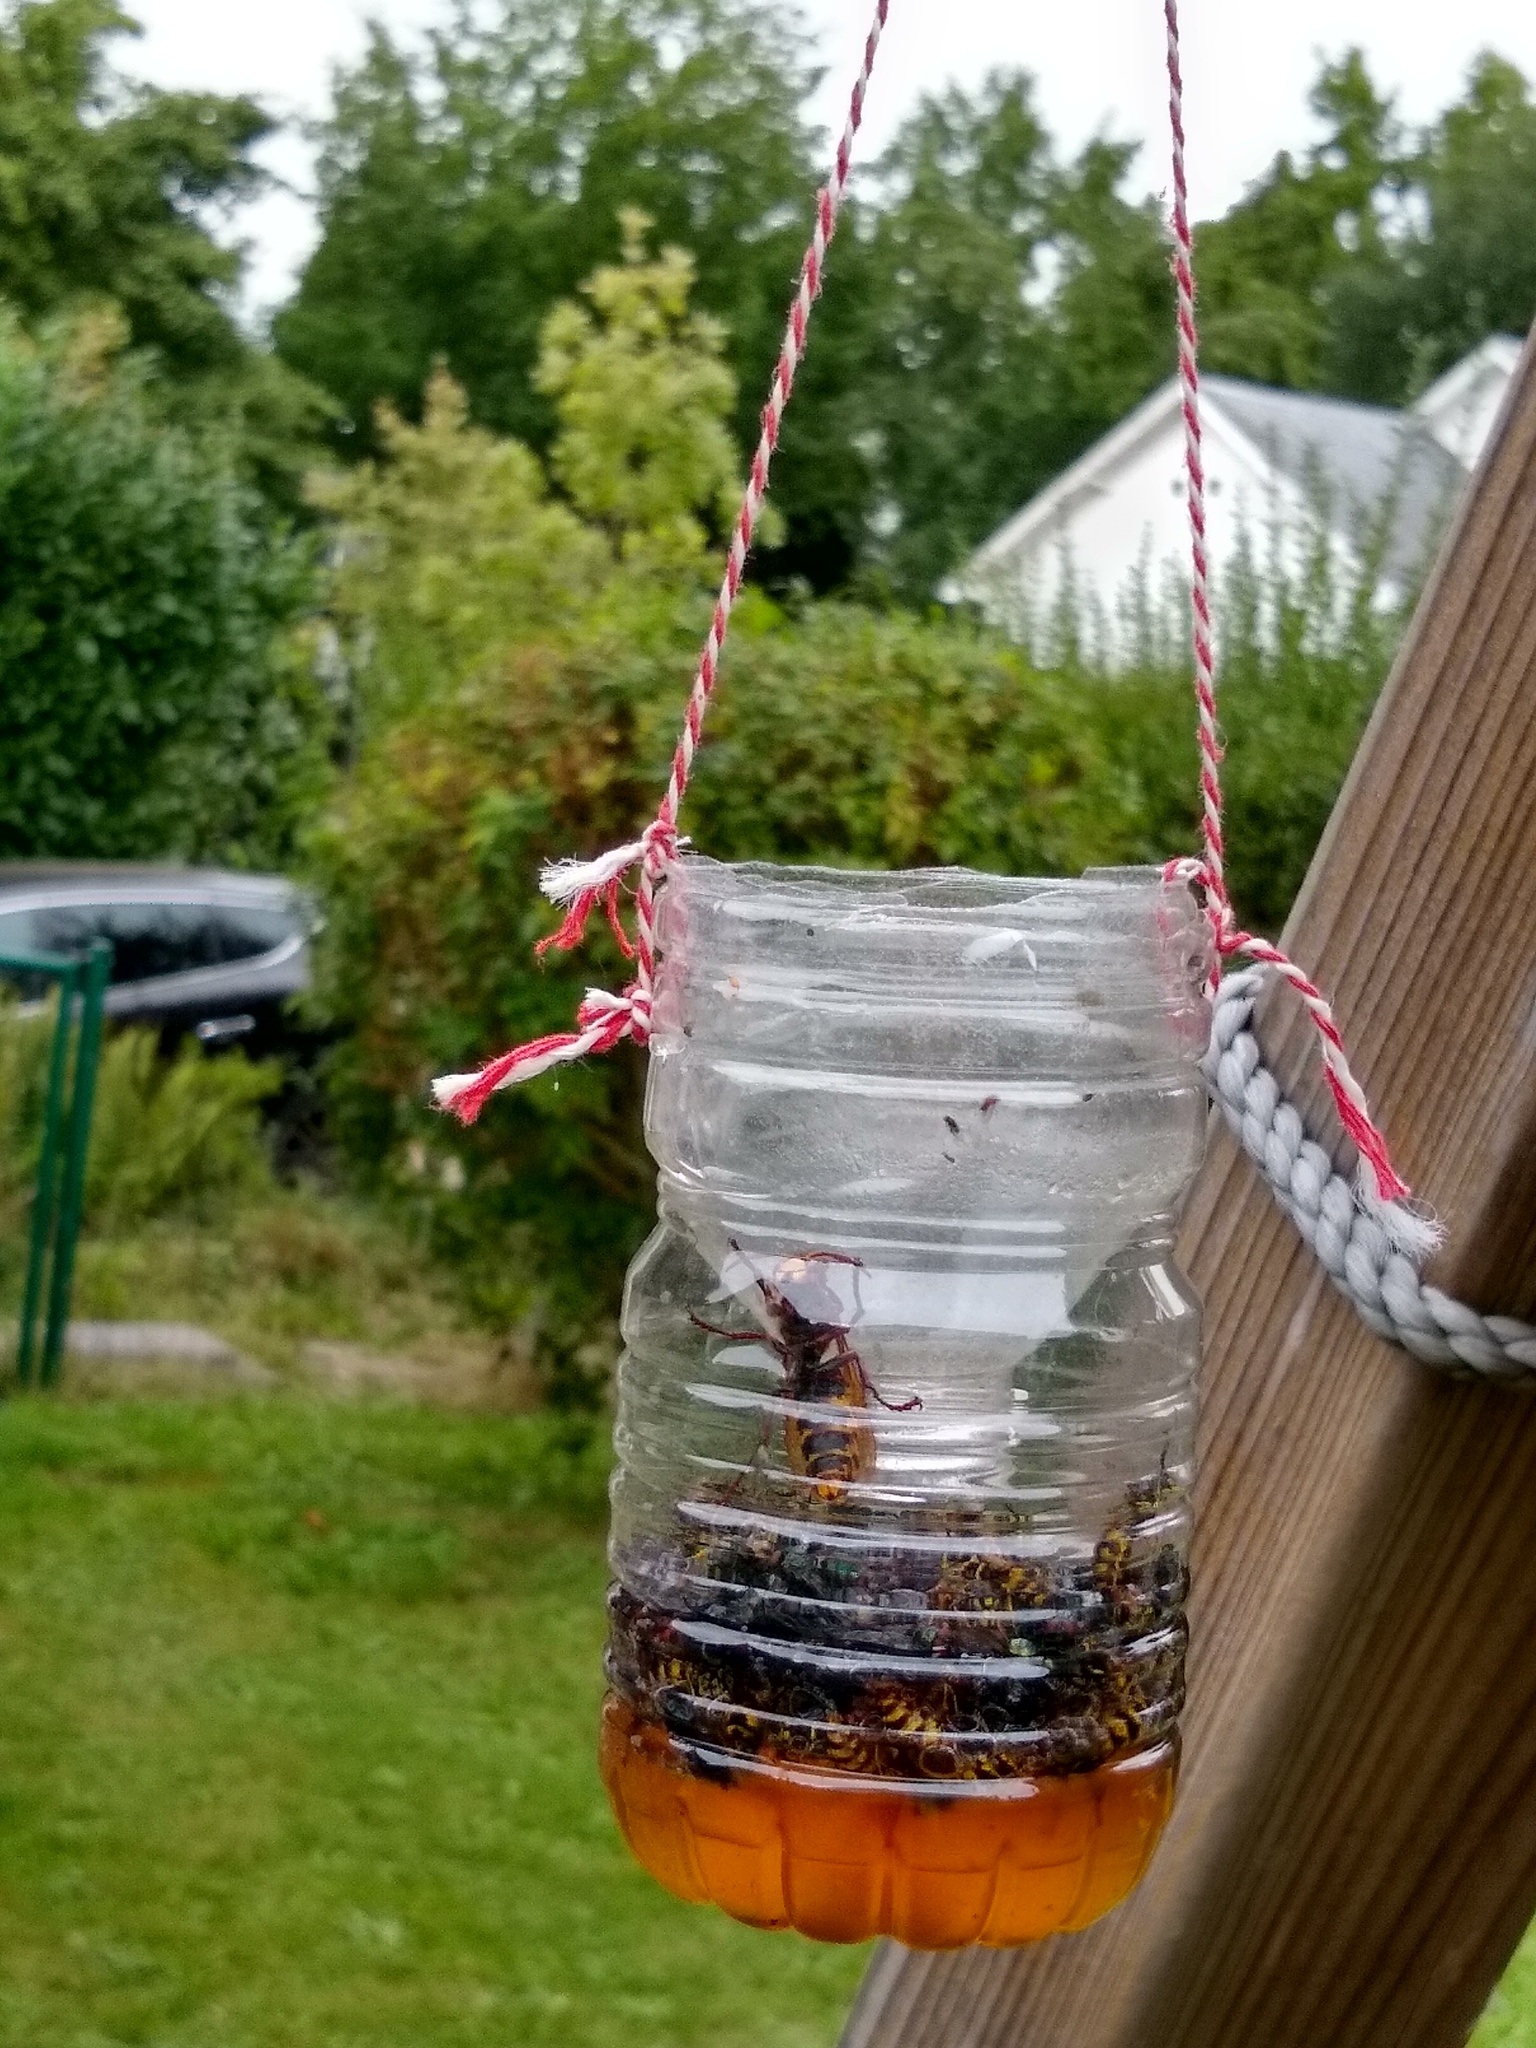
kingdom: Animalia
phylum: Arthropoda
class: Insecta
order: Hymenoptera
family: Vespidae
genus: Vespa
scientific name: Vespa crabro
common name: Hornet
